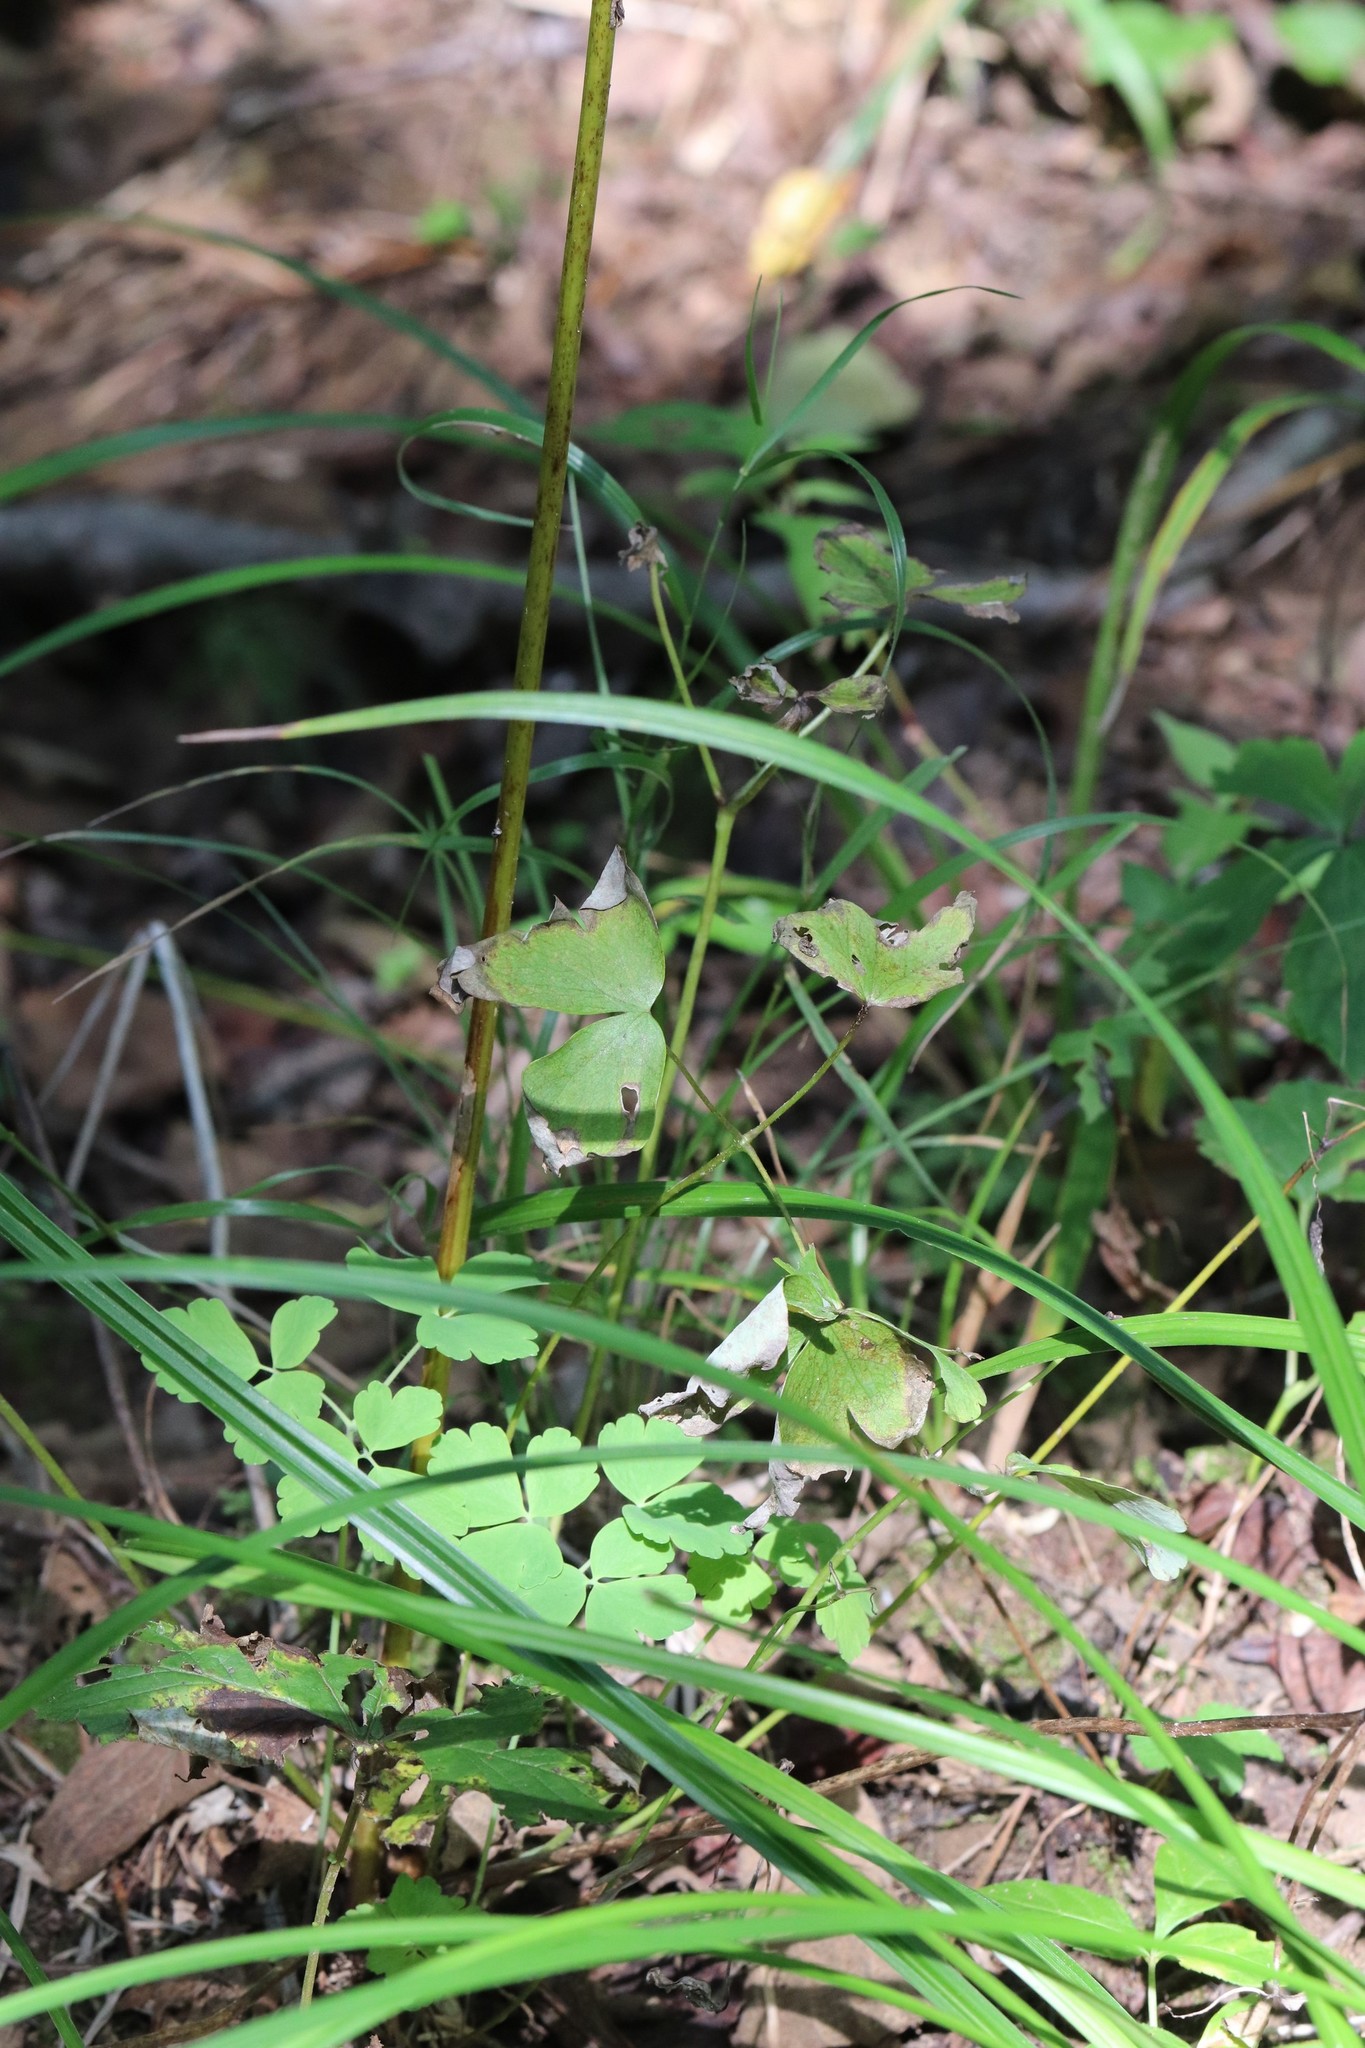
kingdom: Plantae
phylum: Tracheophyta
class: Magnoliopsida
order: Ranunculales
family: Ranunculaceae
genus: Aquilegia
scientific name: Aquilegia oxysepala
